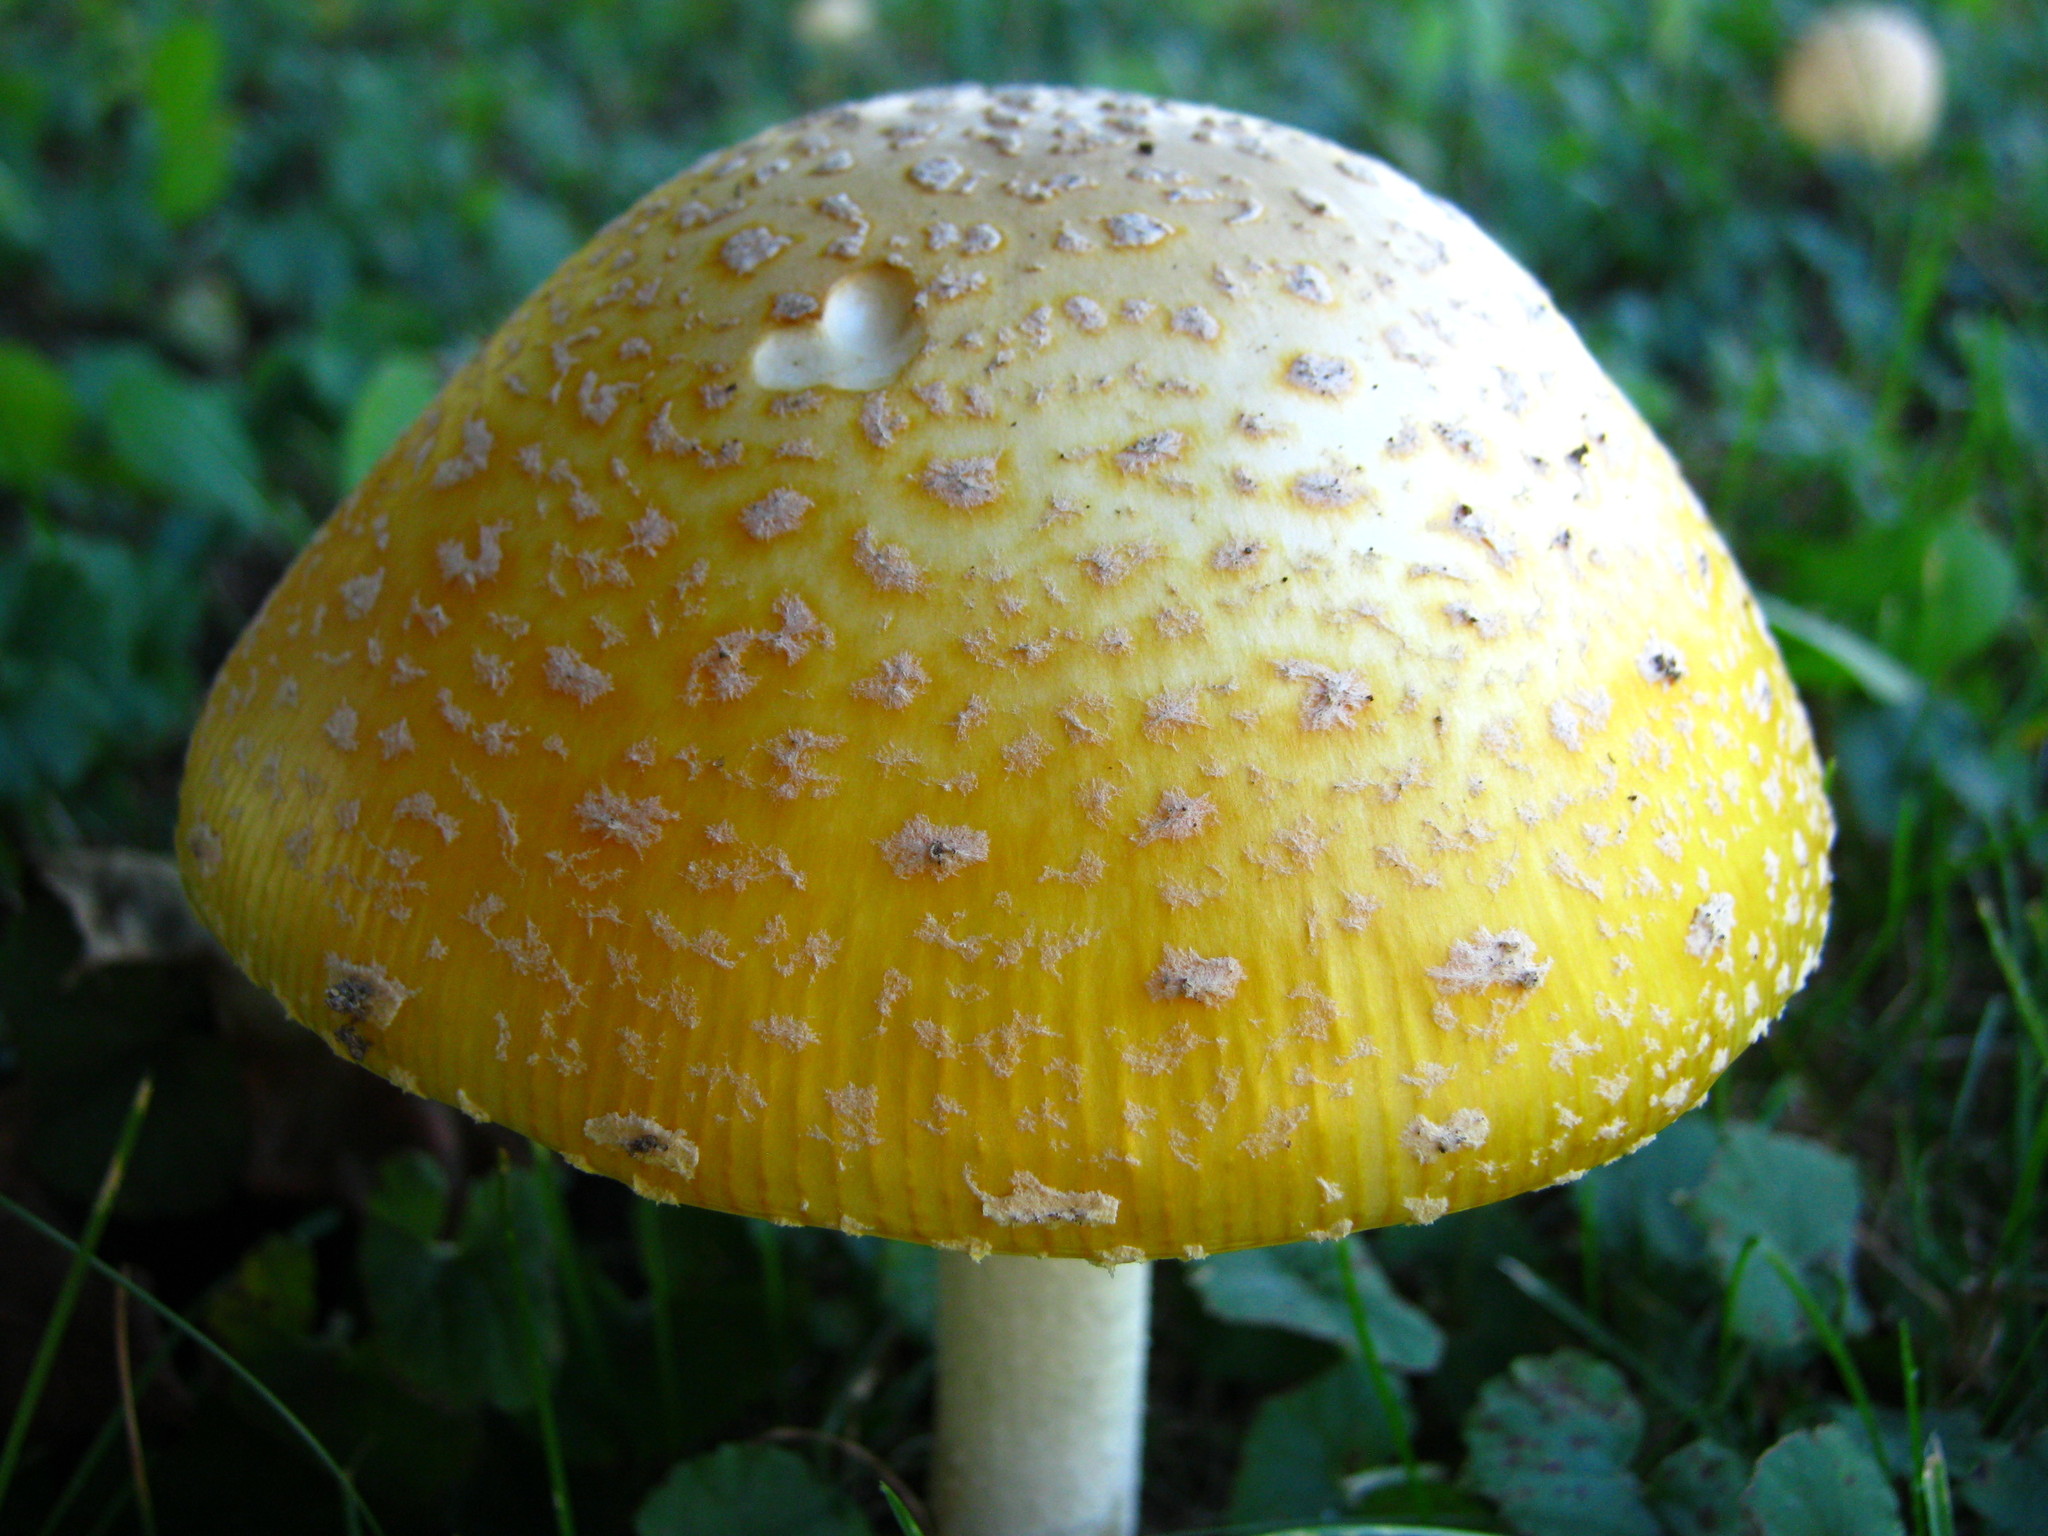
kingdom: Fungi
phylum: Basidiomycota
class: Agaricomycetes
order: Agaricales
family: Amanitaceae
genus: Amanita
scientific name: Amanita muscaria
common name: Fly agaric
